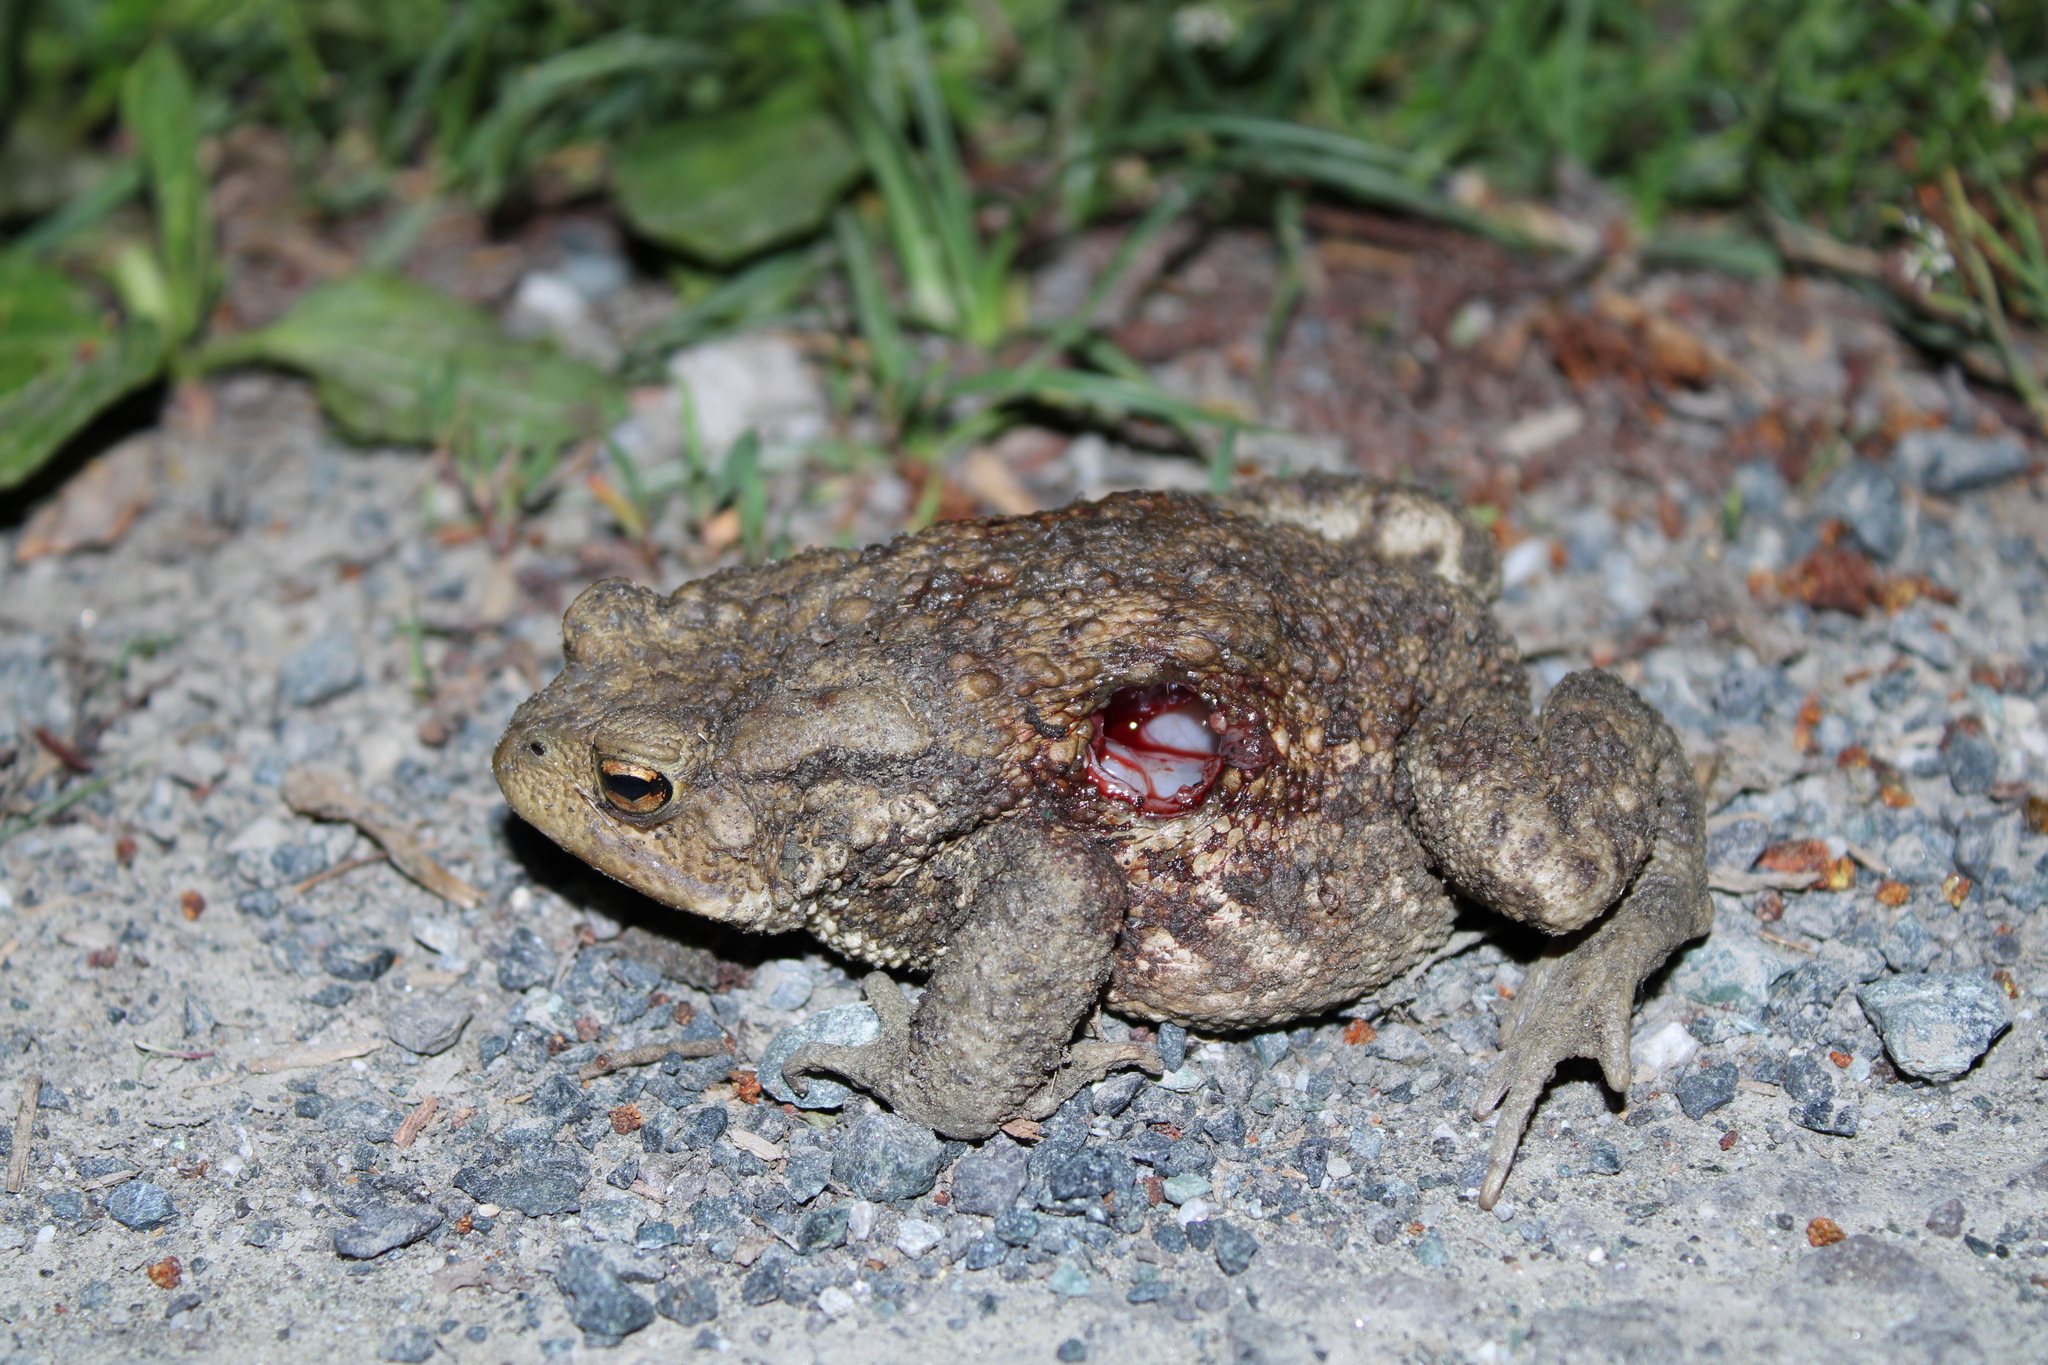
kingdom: Animalia
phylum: Chordata
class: Amphibia
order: Anura
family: Bufonidae
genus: Bufo
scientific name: Bufo bufo
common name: Common toad
